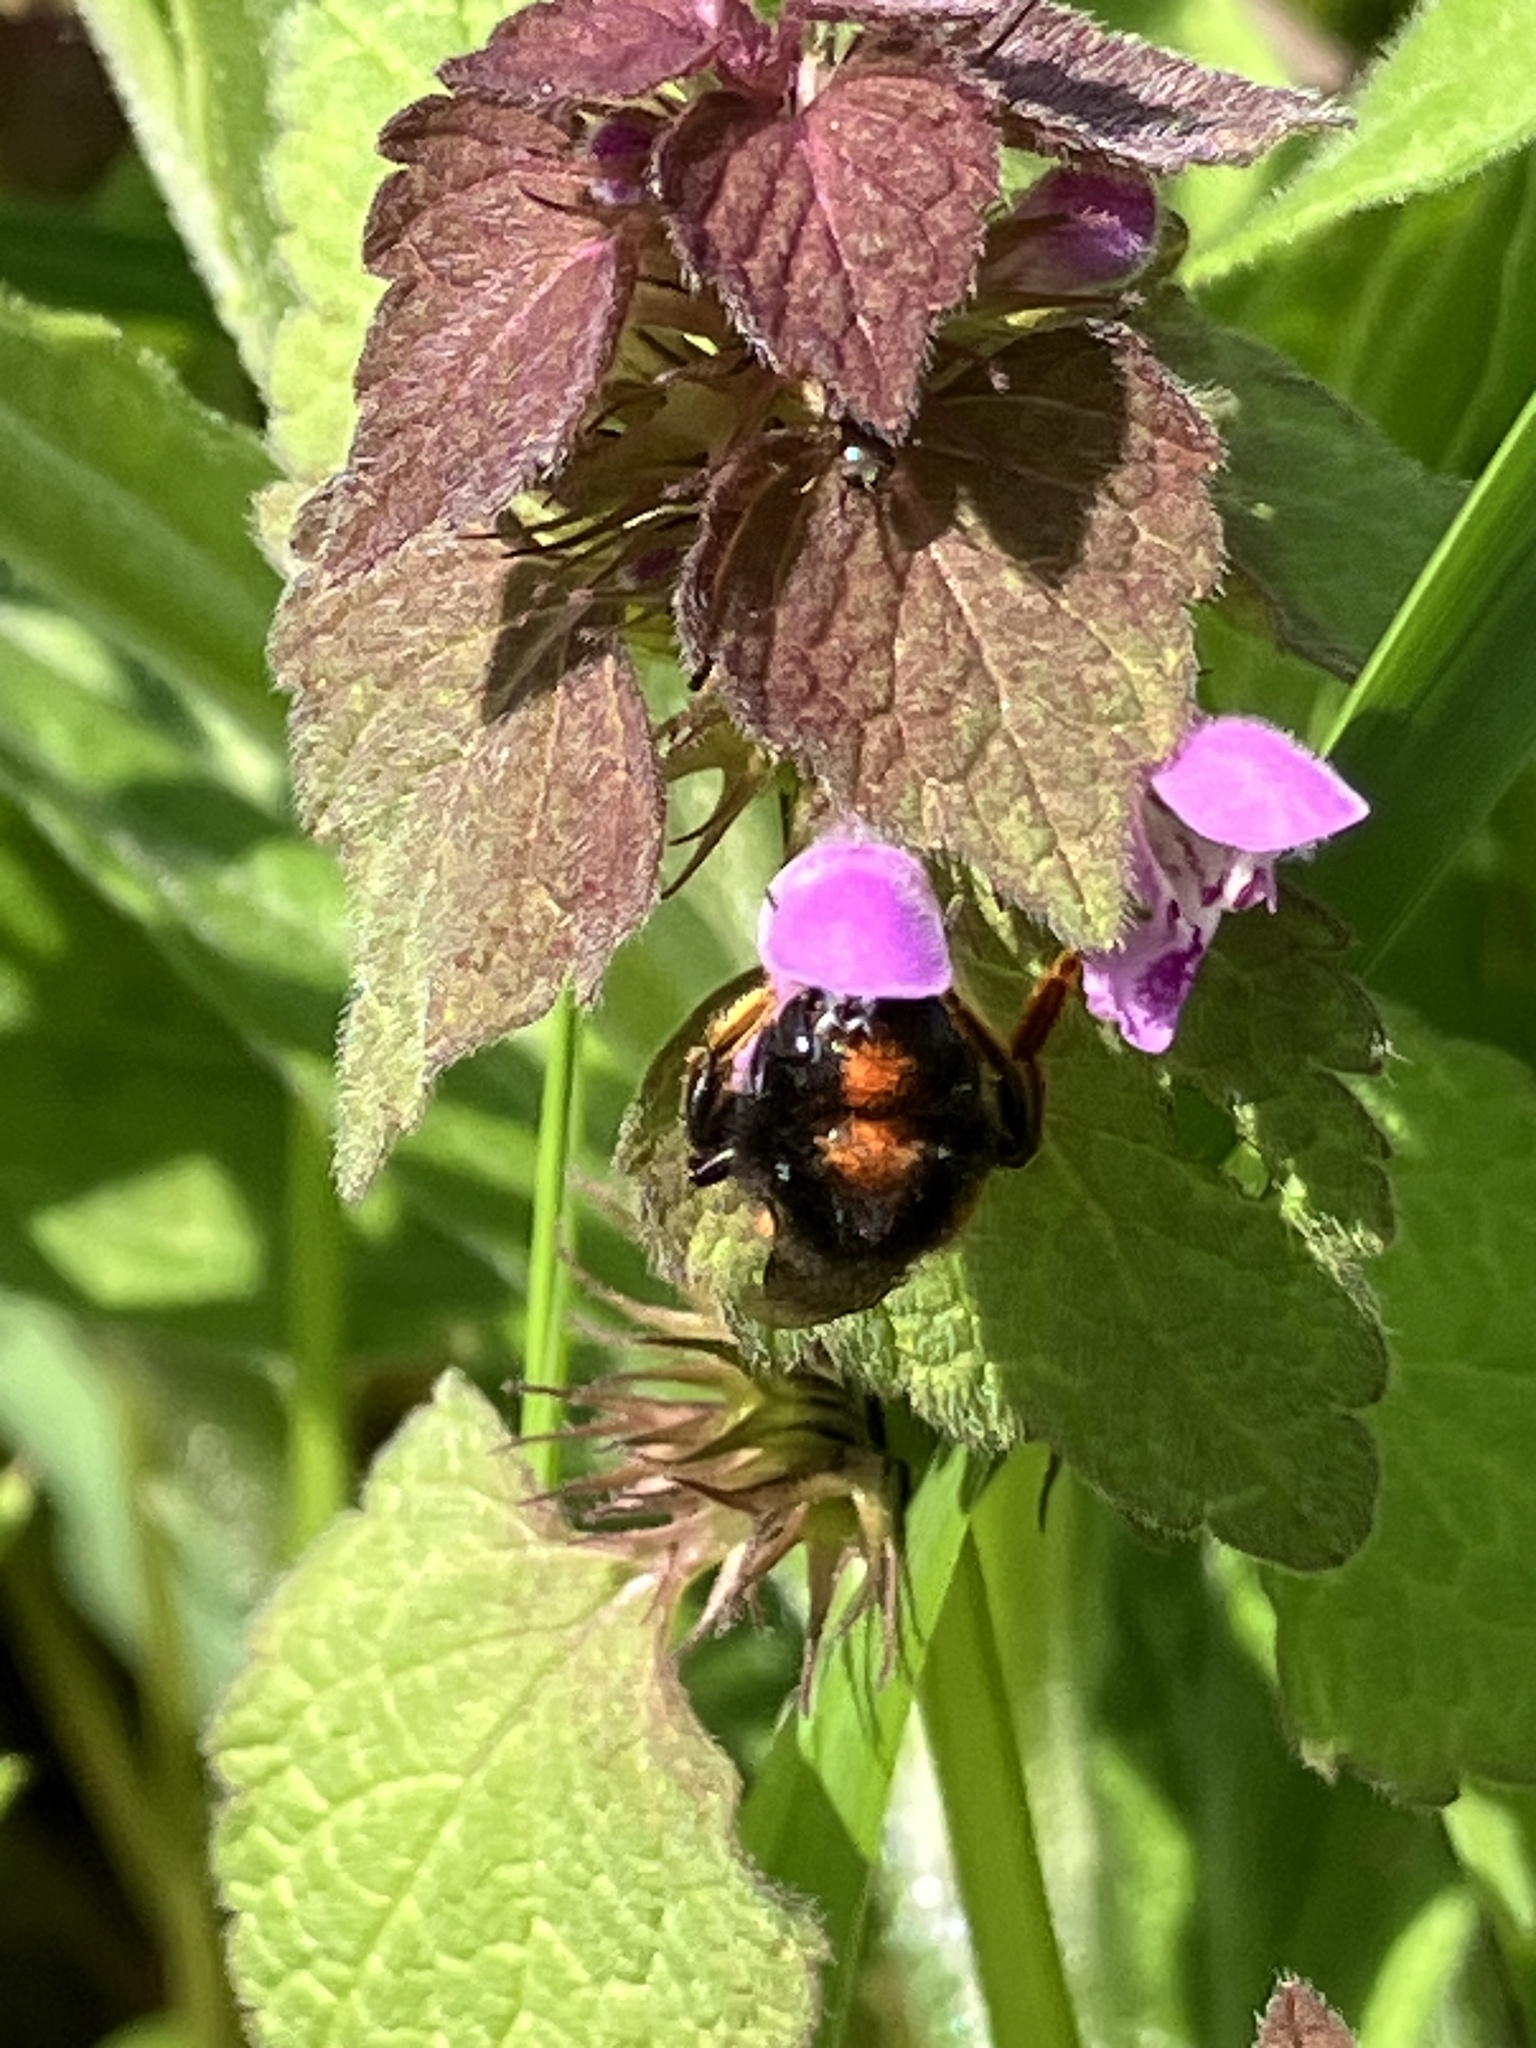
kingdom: Animalia
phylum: Arthropoda
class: Insecta
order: Hymenoptera
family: Megachilidae
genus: Osmia
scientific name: Osmia bicolor
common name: Red-tailed mason bee
